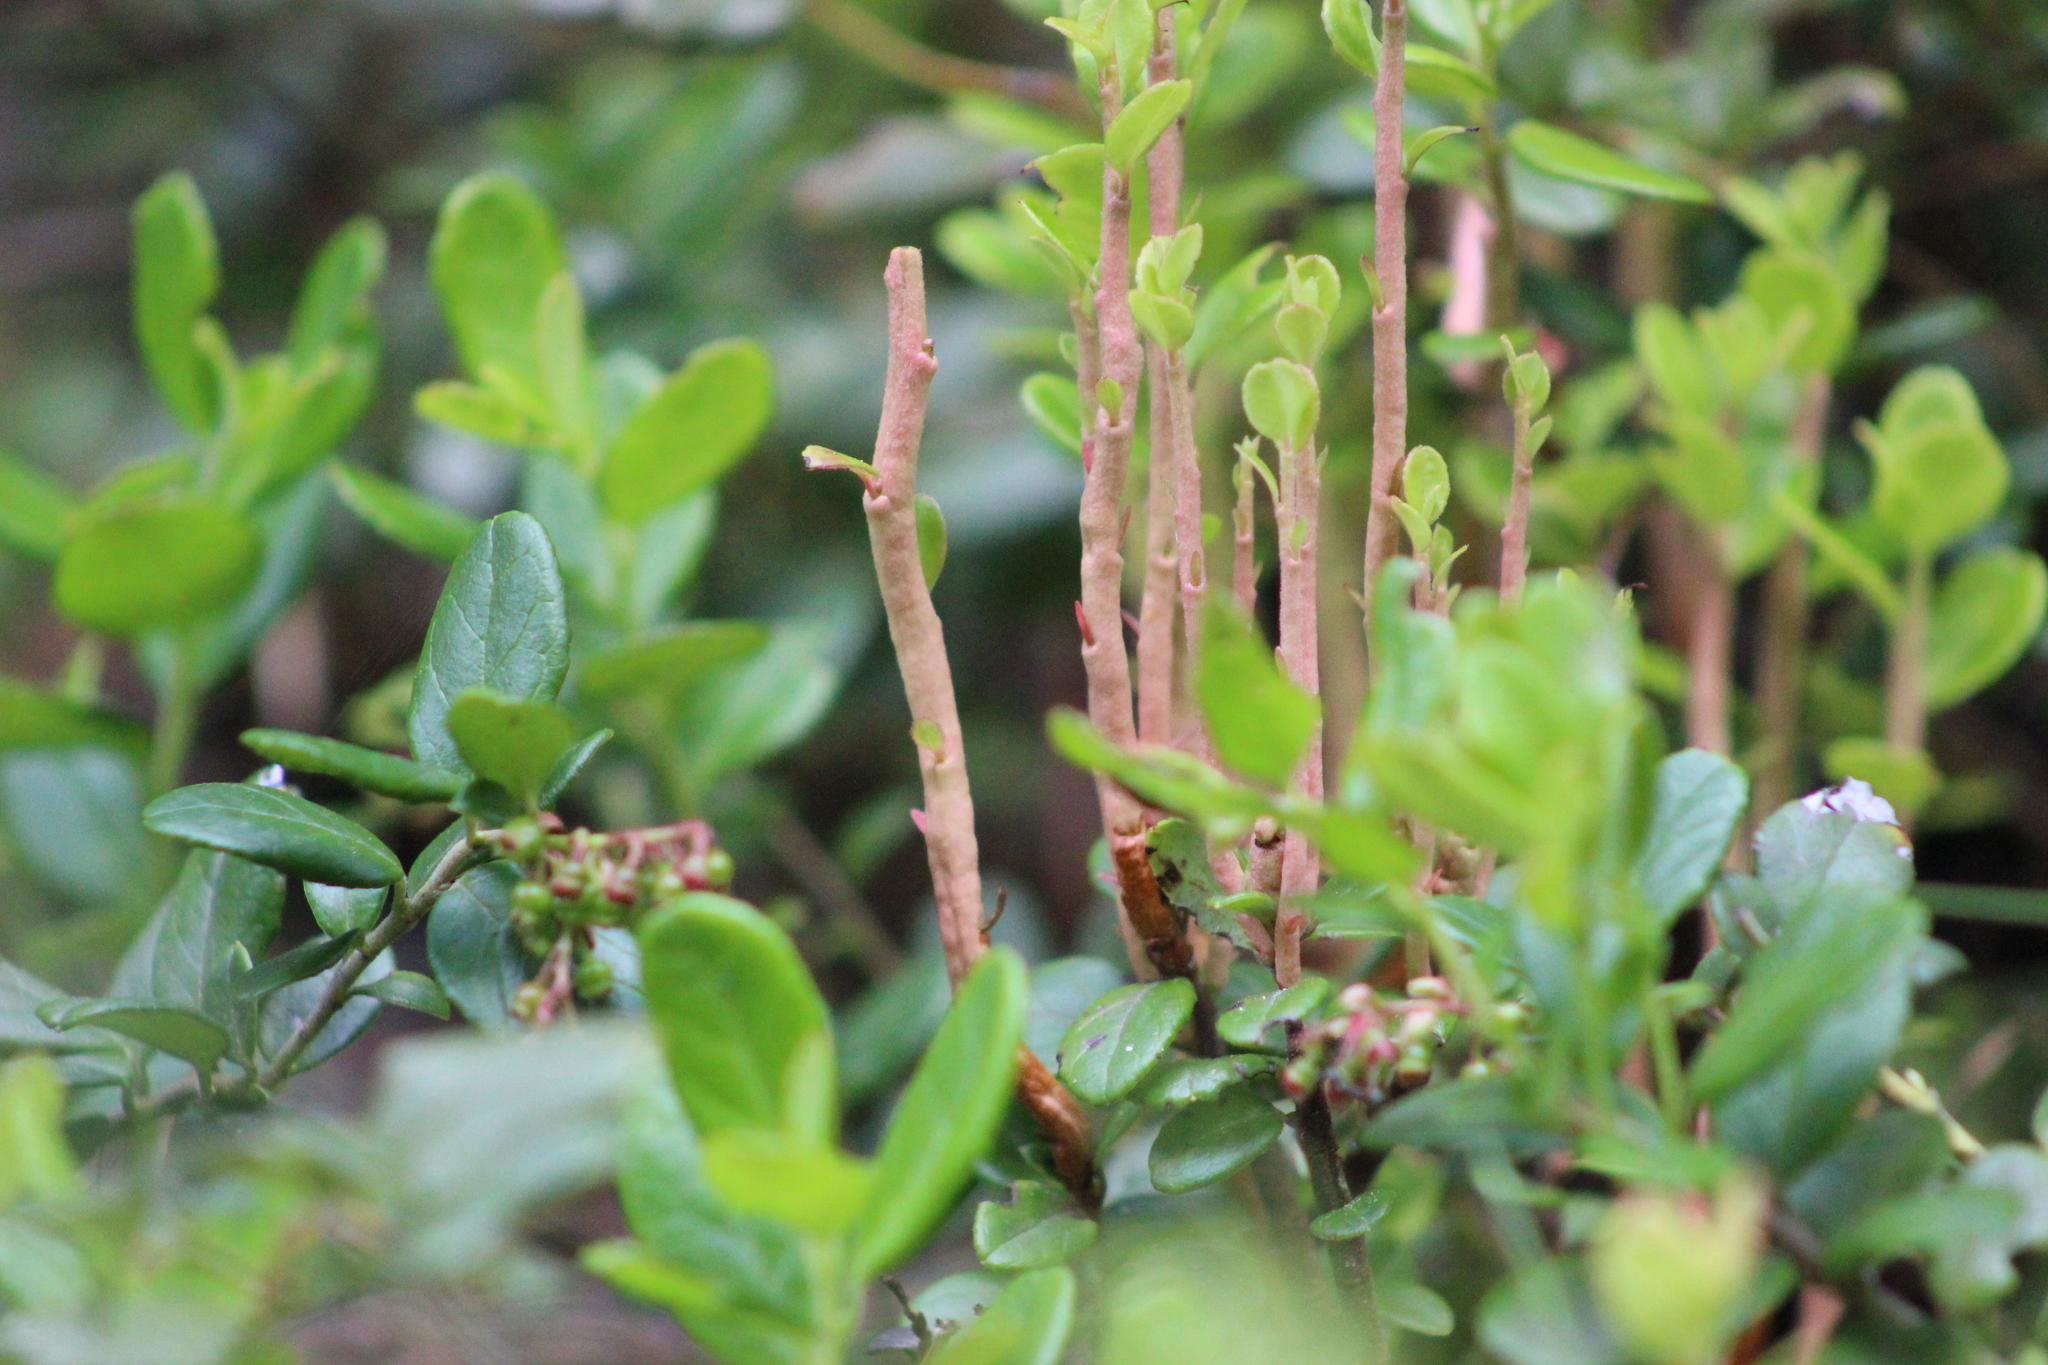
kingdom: Fungi
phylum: Basidiomycota
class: Pucciniomycetes
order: Pucciniales
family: Pucciniastraceae
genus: Calyptospora
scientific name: Calyptospora columnaris
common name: Huckleberry broom rust fungus
